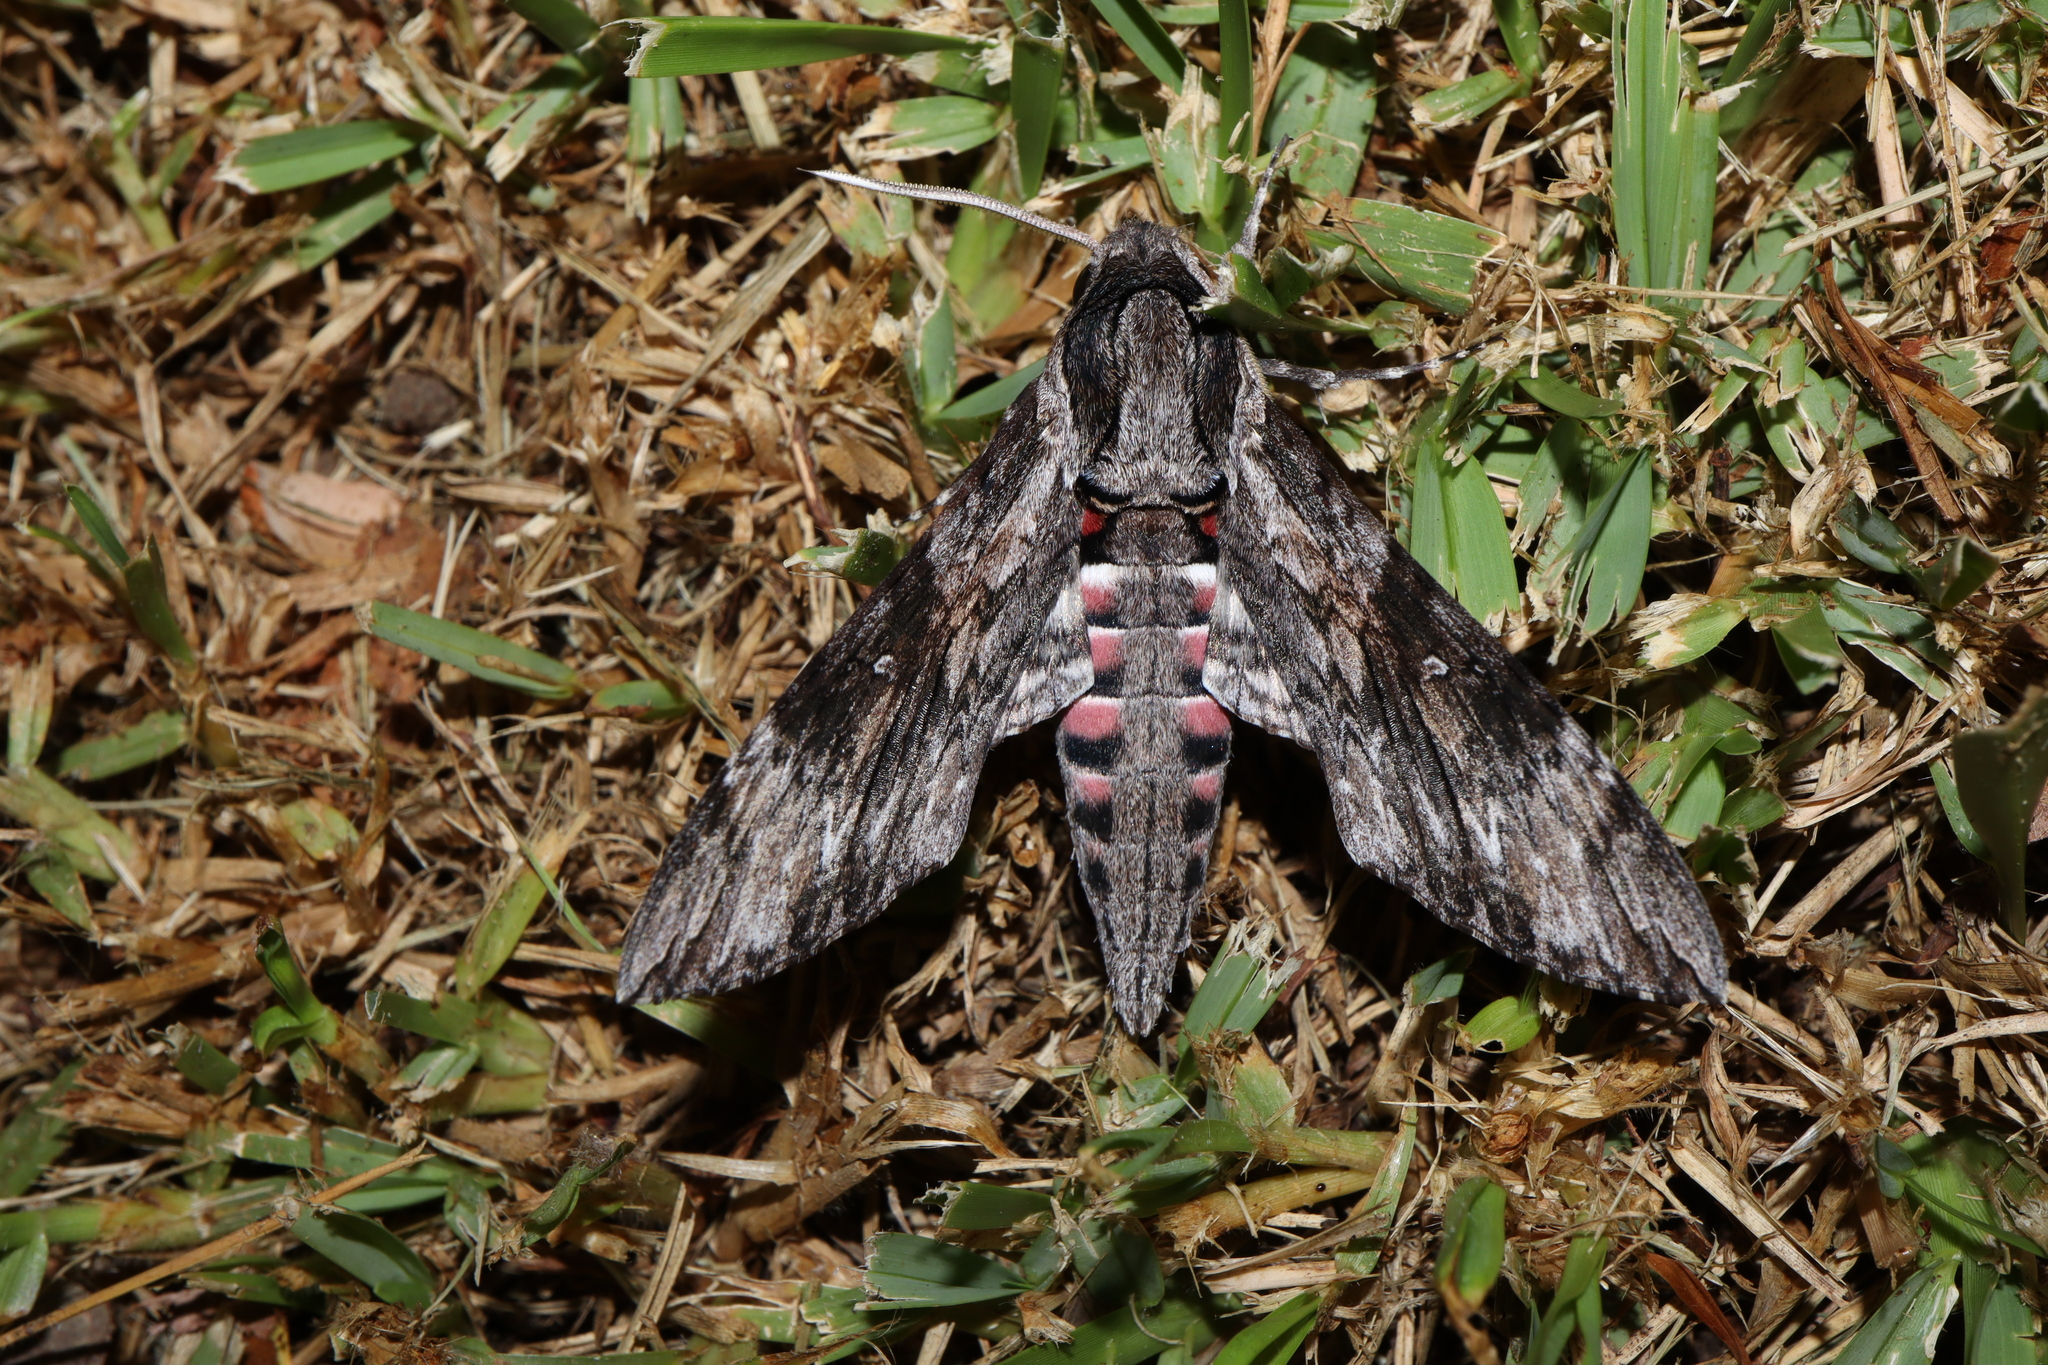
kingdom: Animalia
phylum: Arthropoda
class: Insecta
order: Lepidoptera
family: Sphingidae
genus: Agrius
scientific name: Agrius convolvuli
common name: Convolvulus hawkmoth
